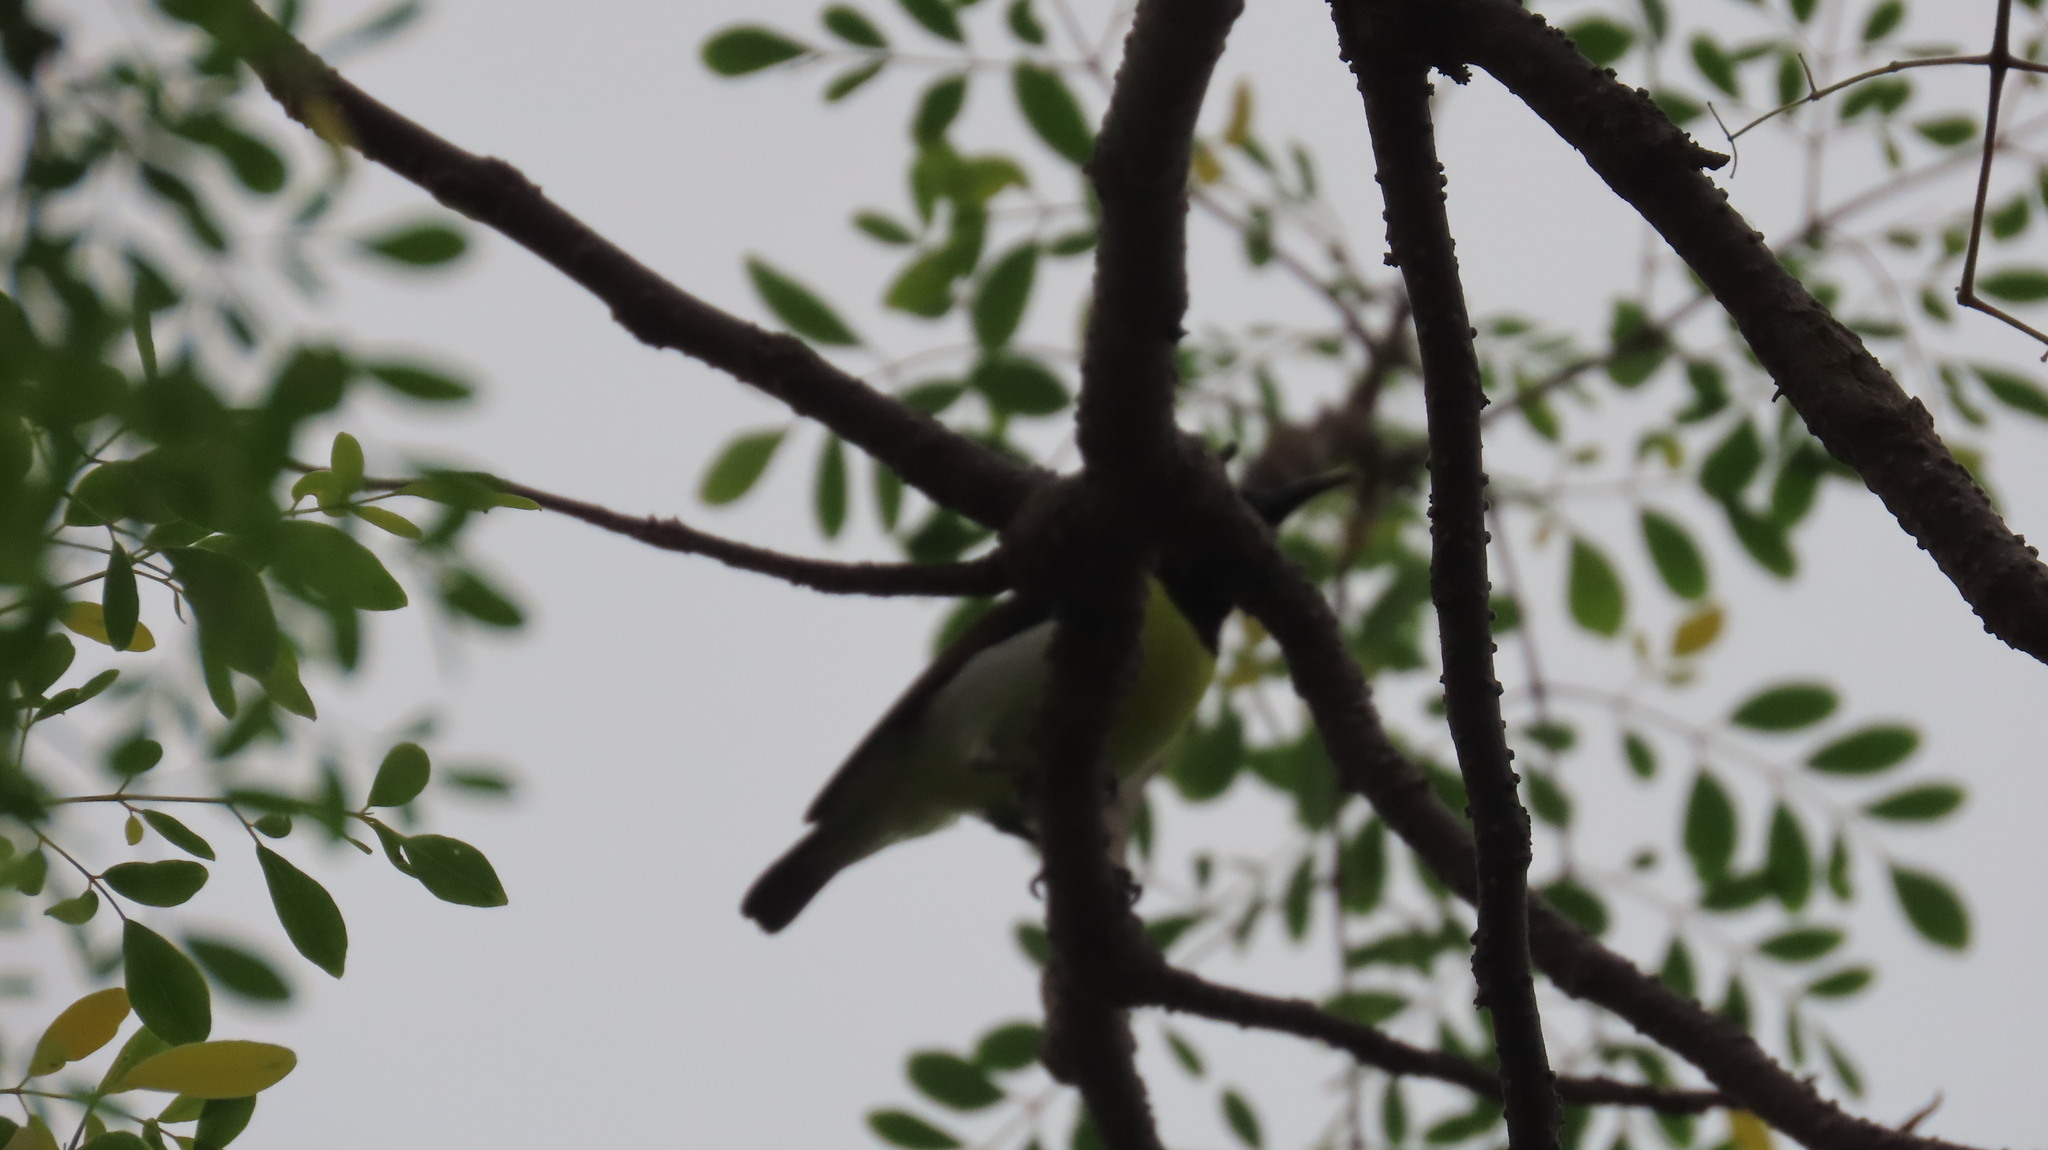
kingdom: Animalia
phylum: Chordata
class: Aves
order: Passeriformes
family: Nectariniidae
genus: Leptocoma
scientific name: Leptocoma zeylonica
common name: Purple-rumped sunbird
